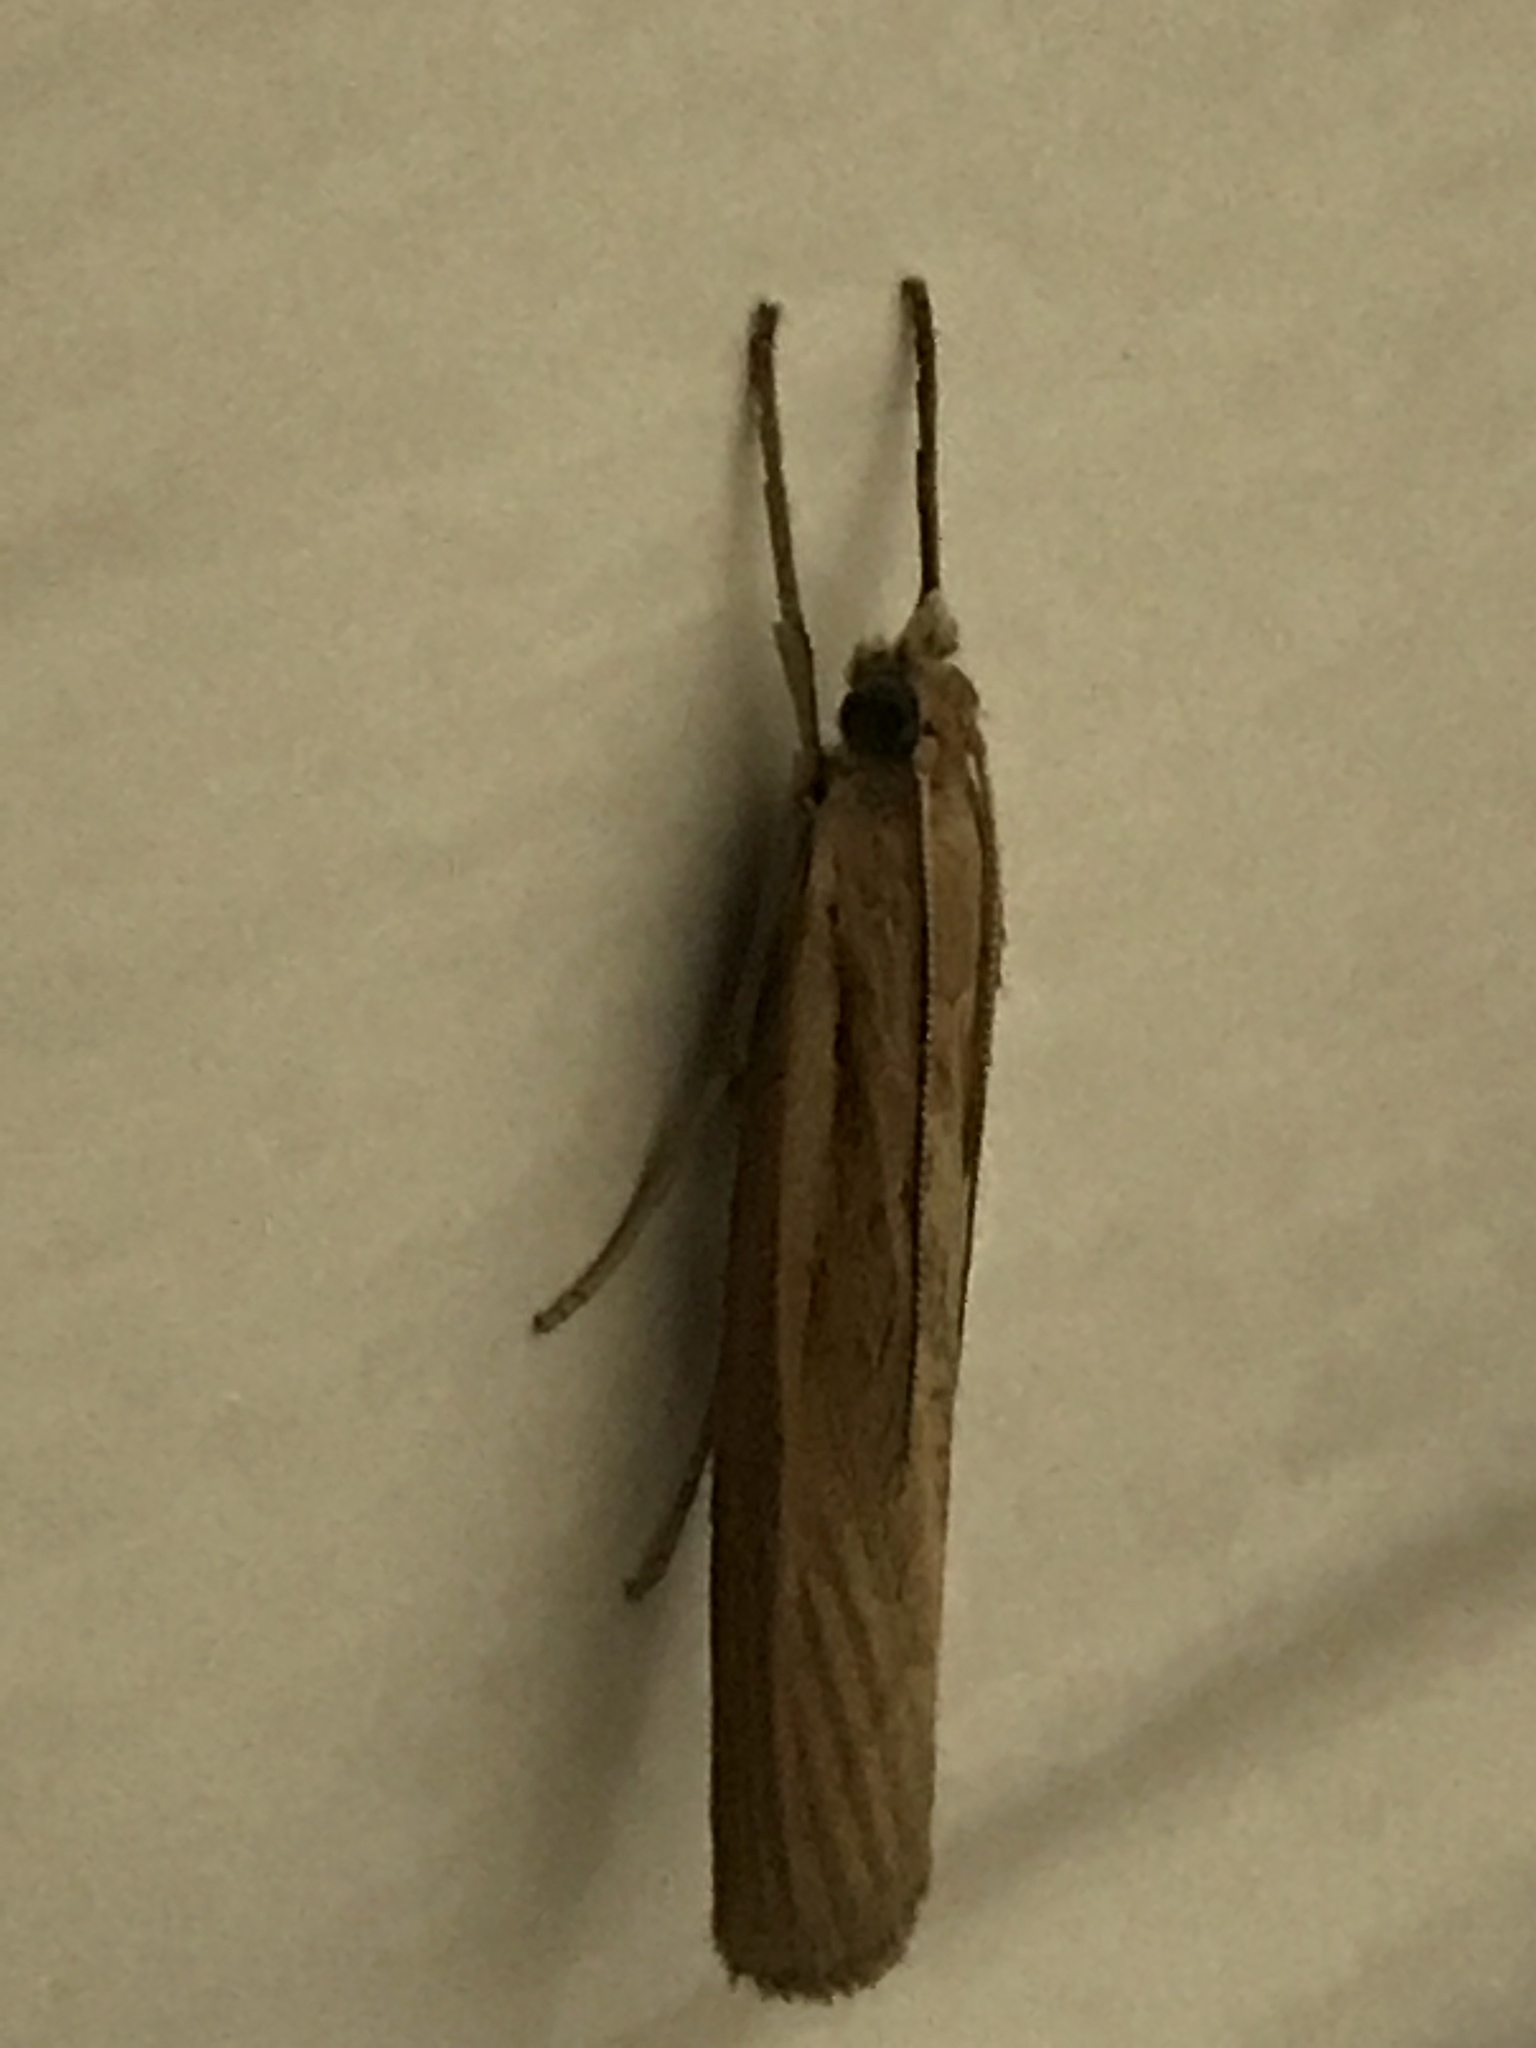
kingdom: Animalia
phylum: Arthropoda
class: Insecta
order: Lepidoptera
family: Crambidae
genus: Agriphila
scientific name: Agriphila tristellus
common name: Common grass-veneer
